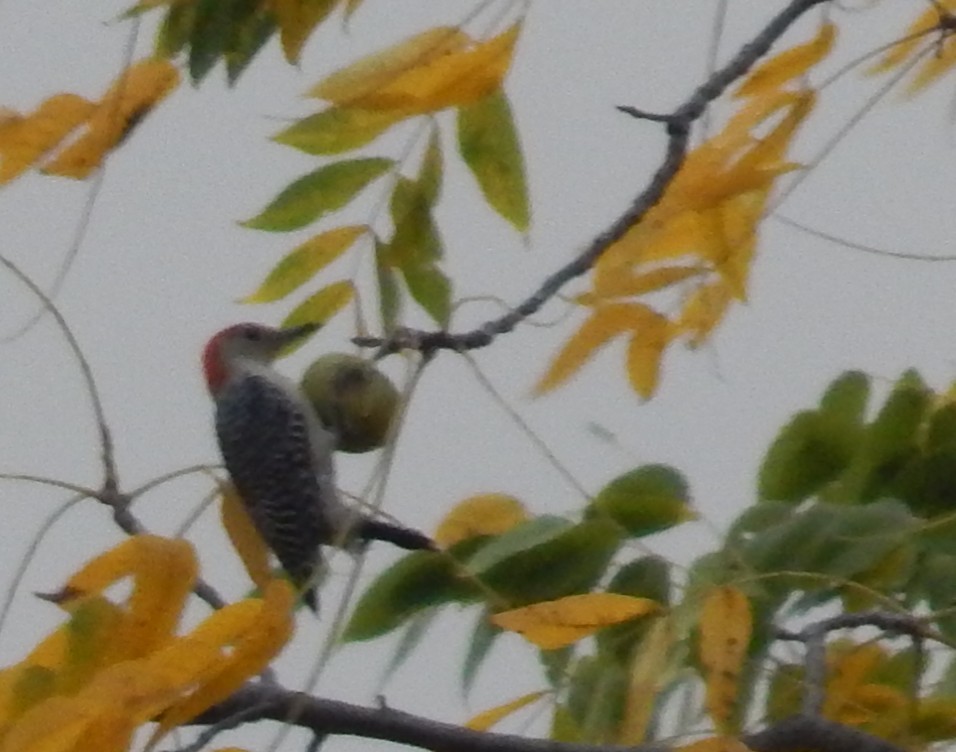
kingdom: Animalia
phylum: Chordata
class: Aves
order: Piciformes
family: Picidae
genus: Melanerpes
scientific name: Melanerpes carolinus
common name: Red-bellied woodpecker
